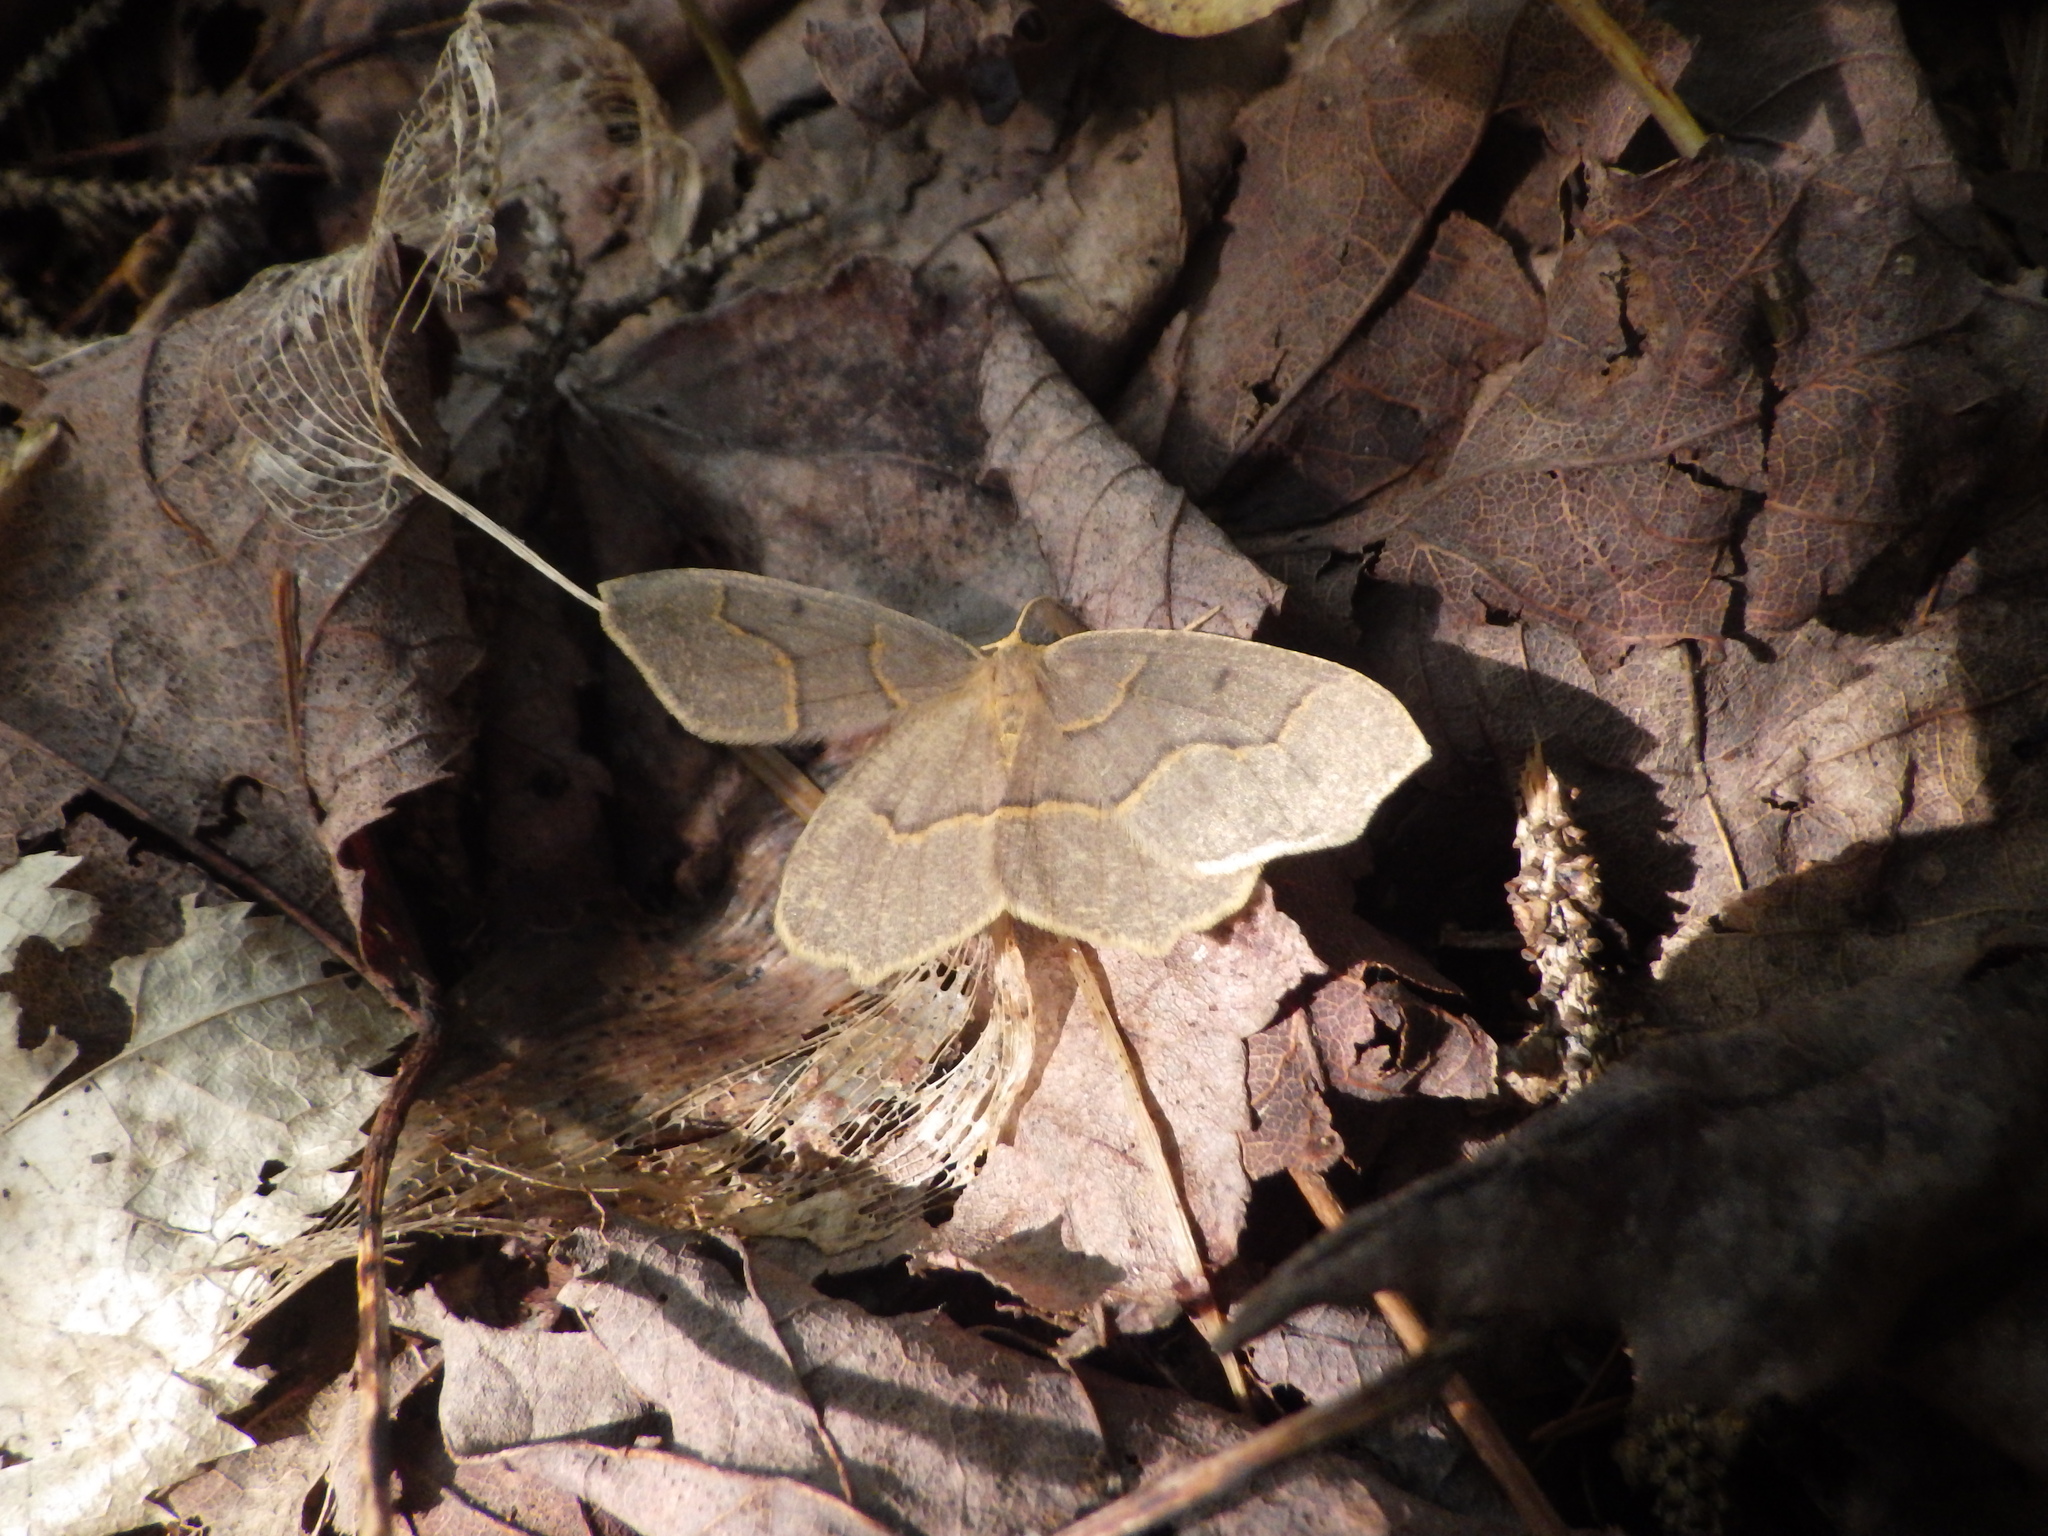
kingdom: Animalia
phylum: Arthropoda
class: Insecta
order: Lepidoptera
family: Geometridae
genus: Lambdina
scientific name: Lambdina fiscellaria
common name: Hemlock looper
